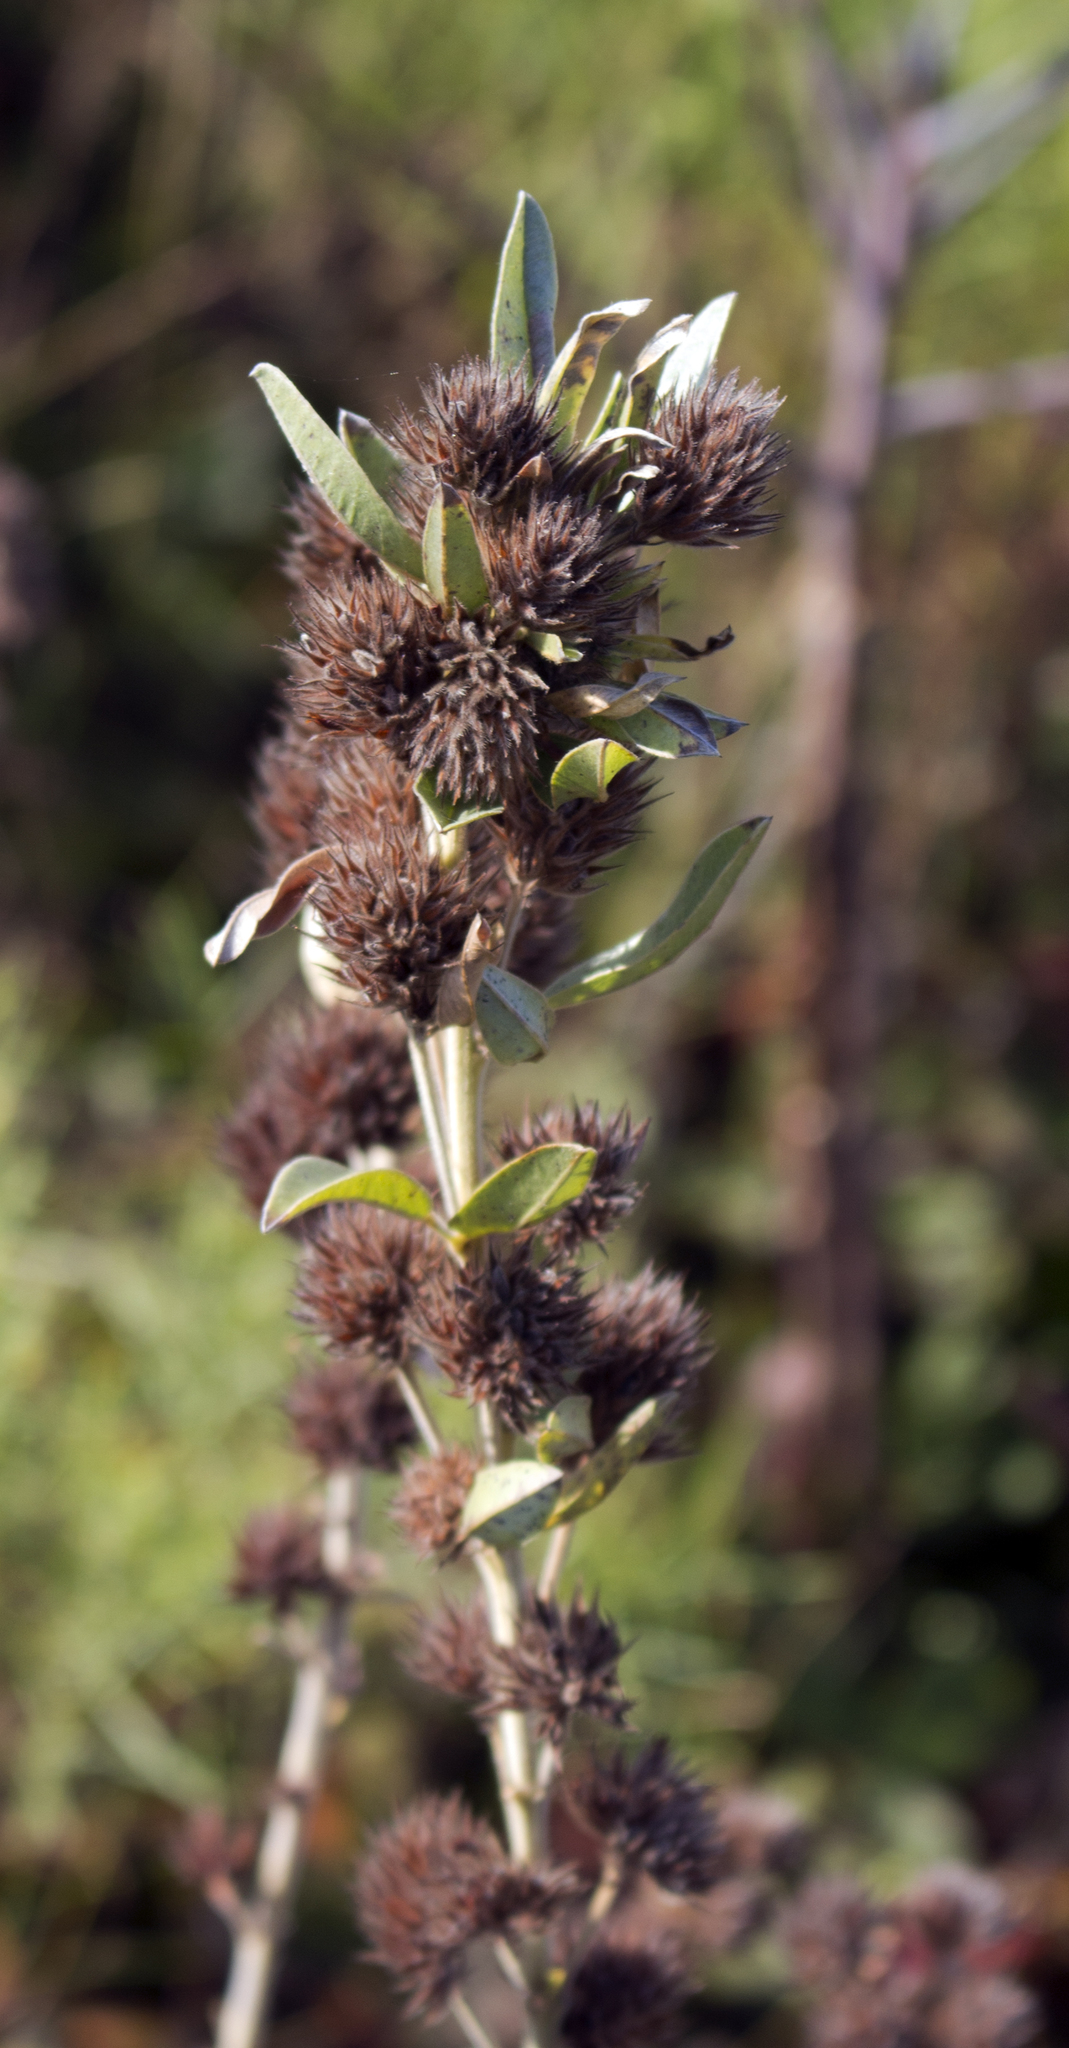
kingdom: Plantae
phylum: Tracheophyta
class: Magnoliopsida
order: Fabales
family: Fabaceae
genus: Lespedeza
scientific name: Lespedeza capitata
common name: Dusty clover
